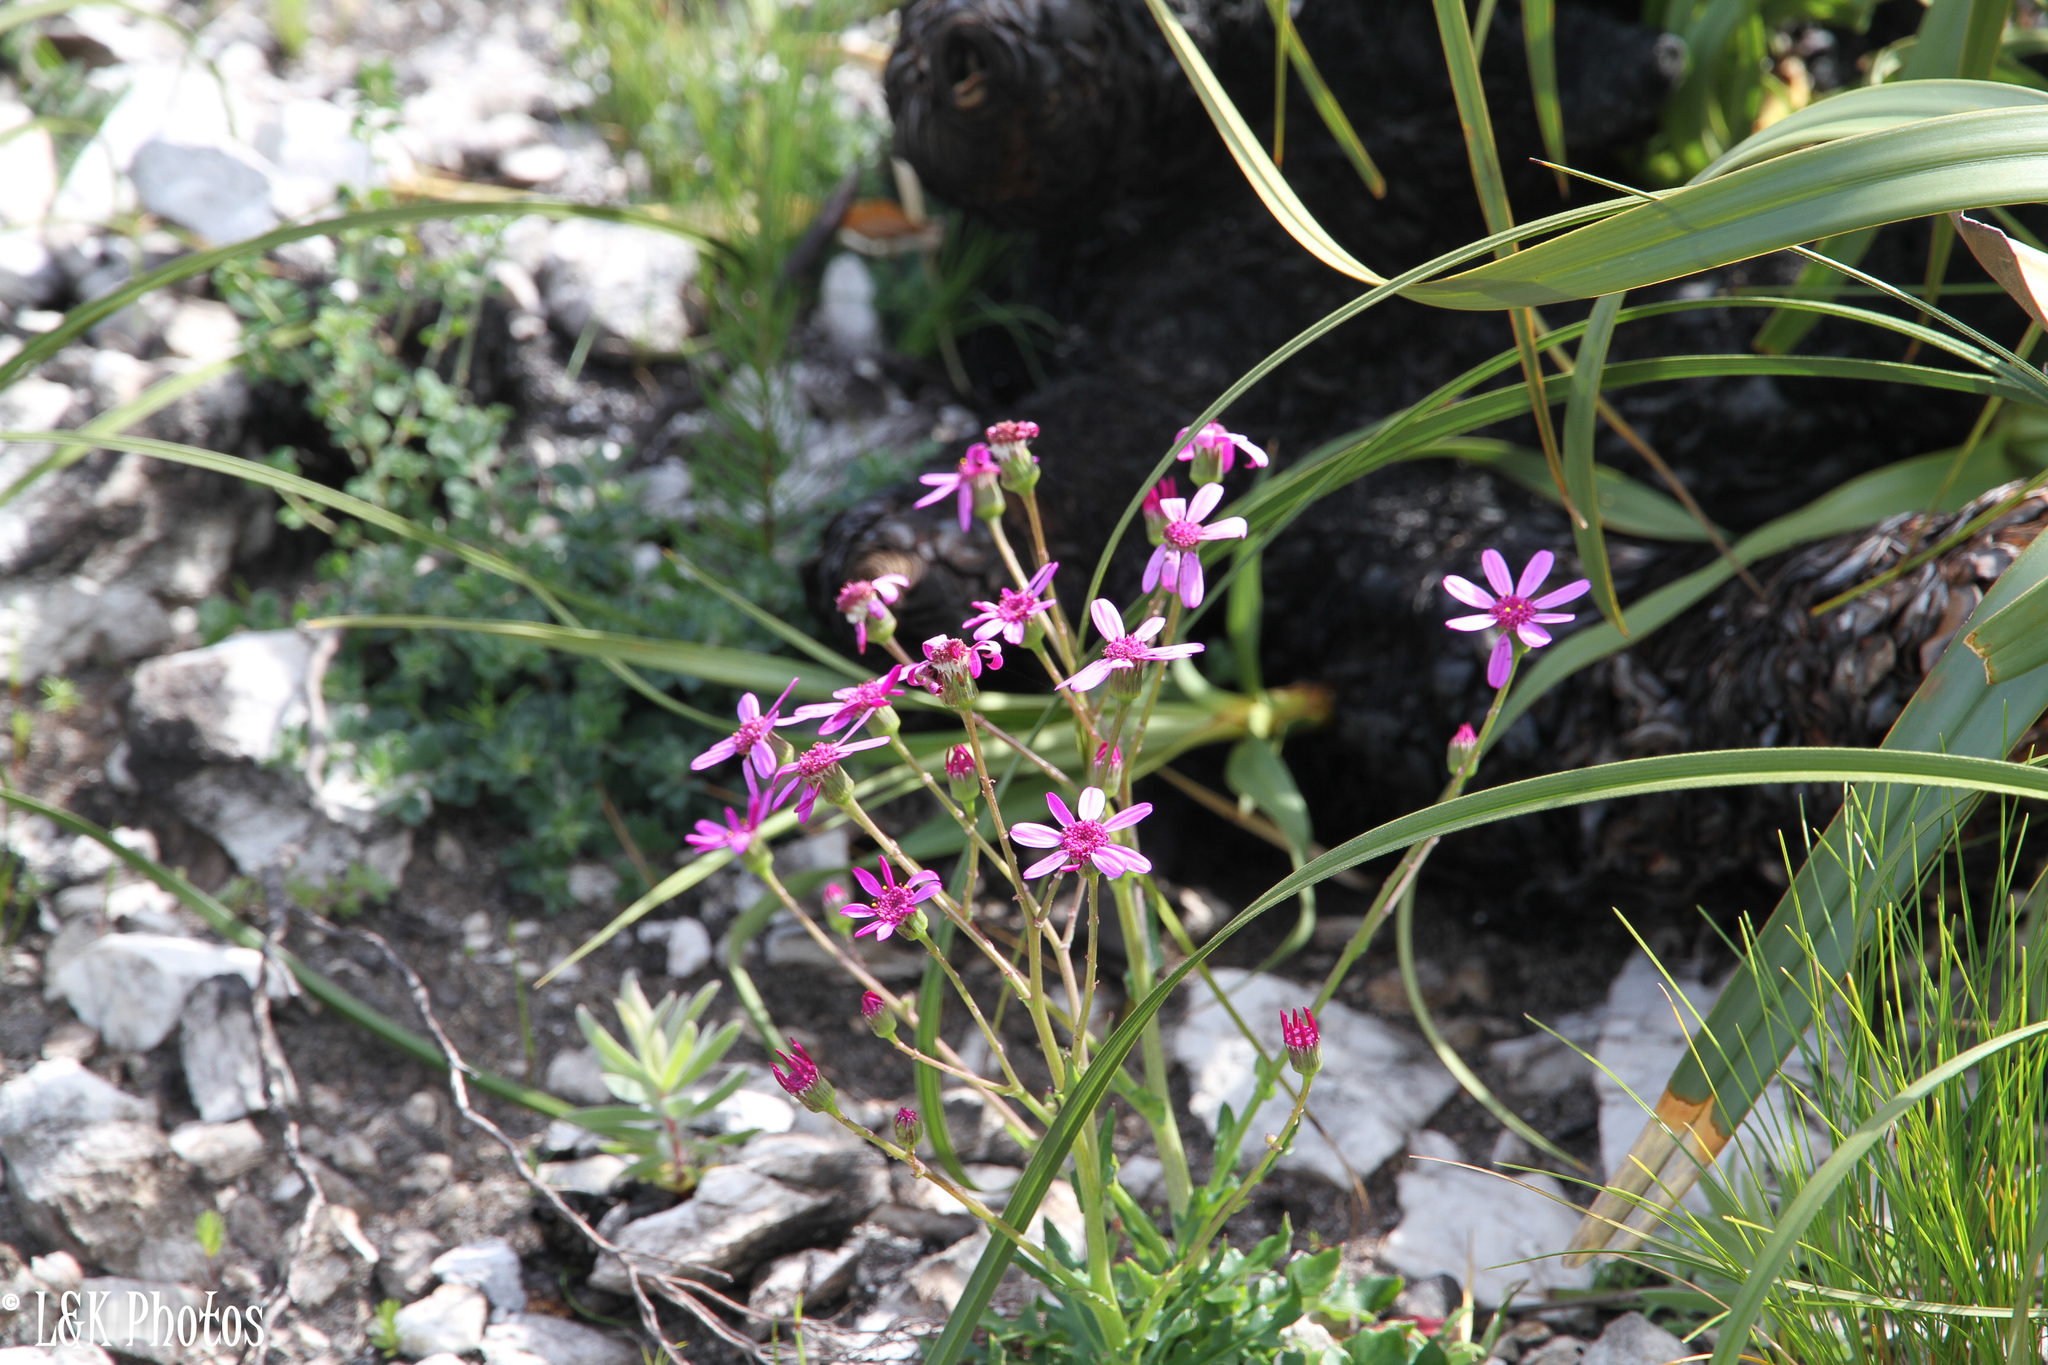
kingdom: Plantae
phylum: Tracheophyta
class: Magnoliopsida
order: Asterales
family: Asteraceae
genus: Senecio
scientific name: Senecio cymbalariifolius
